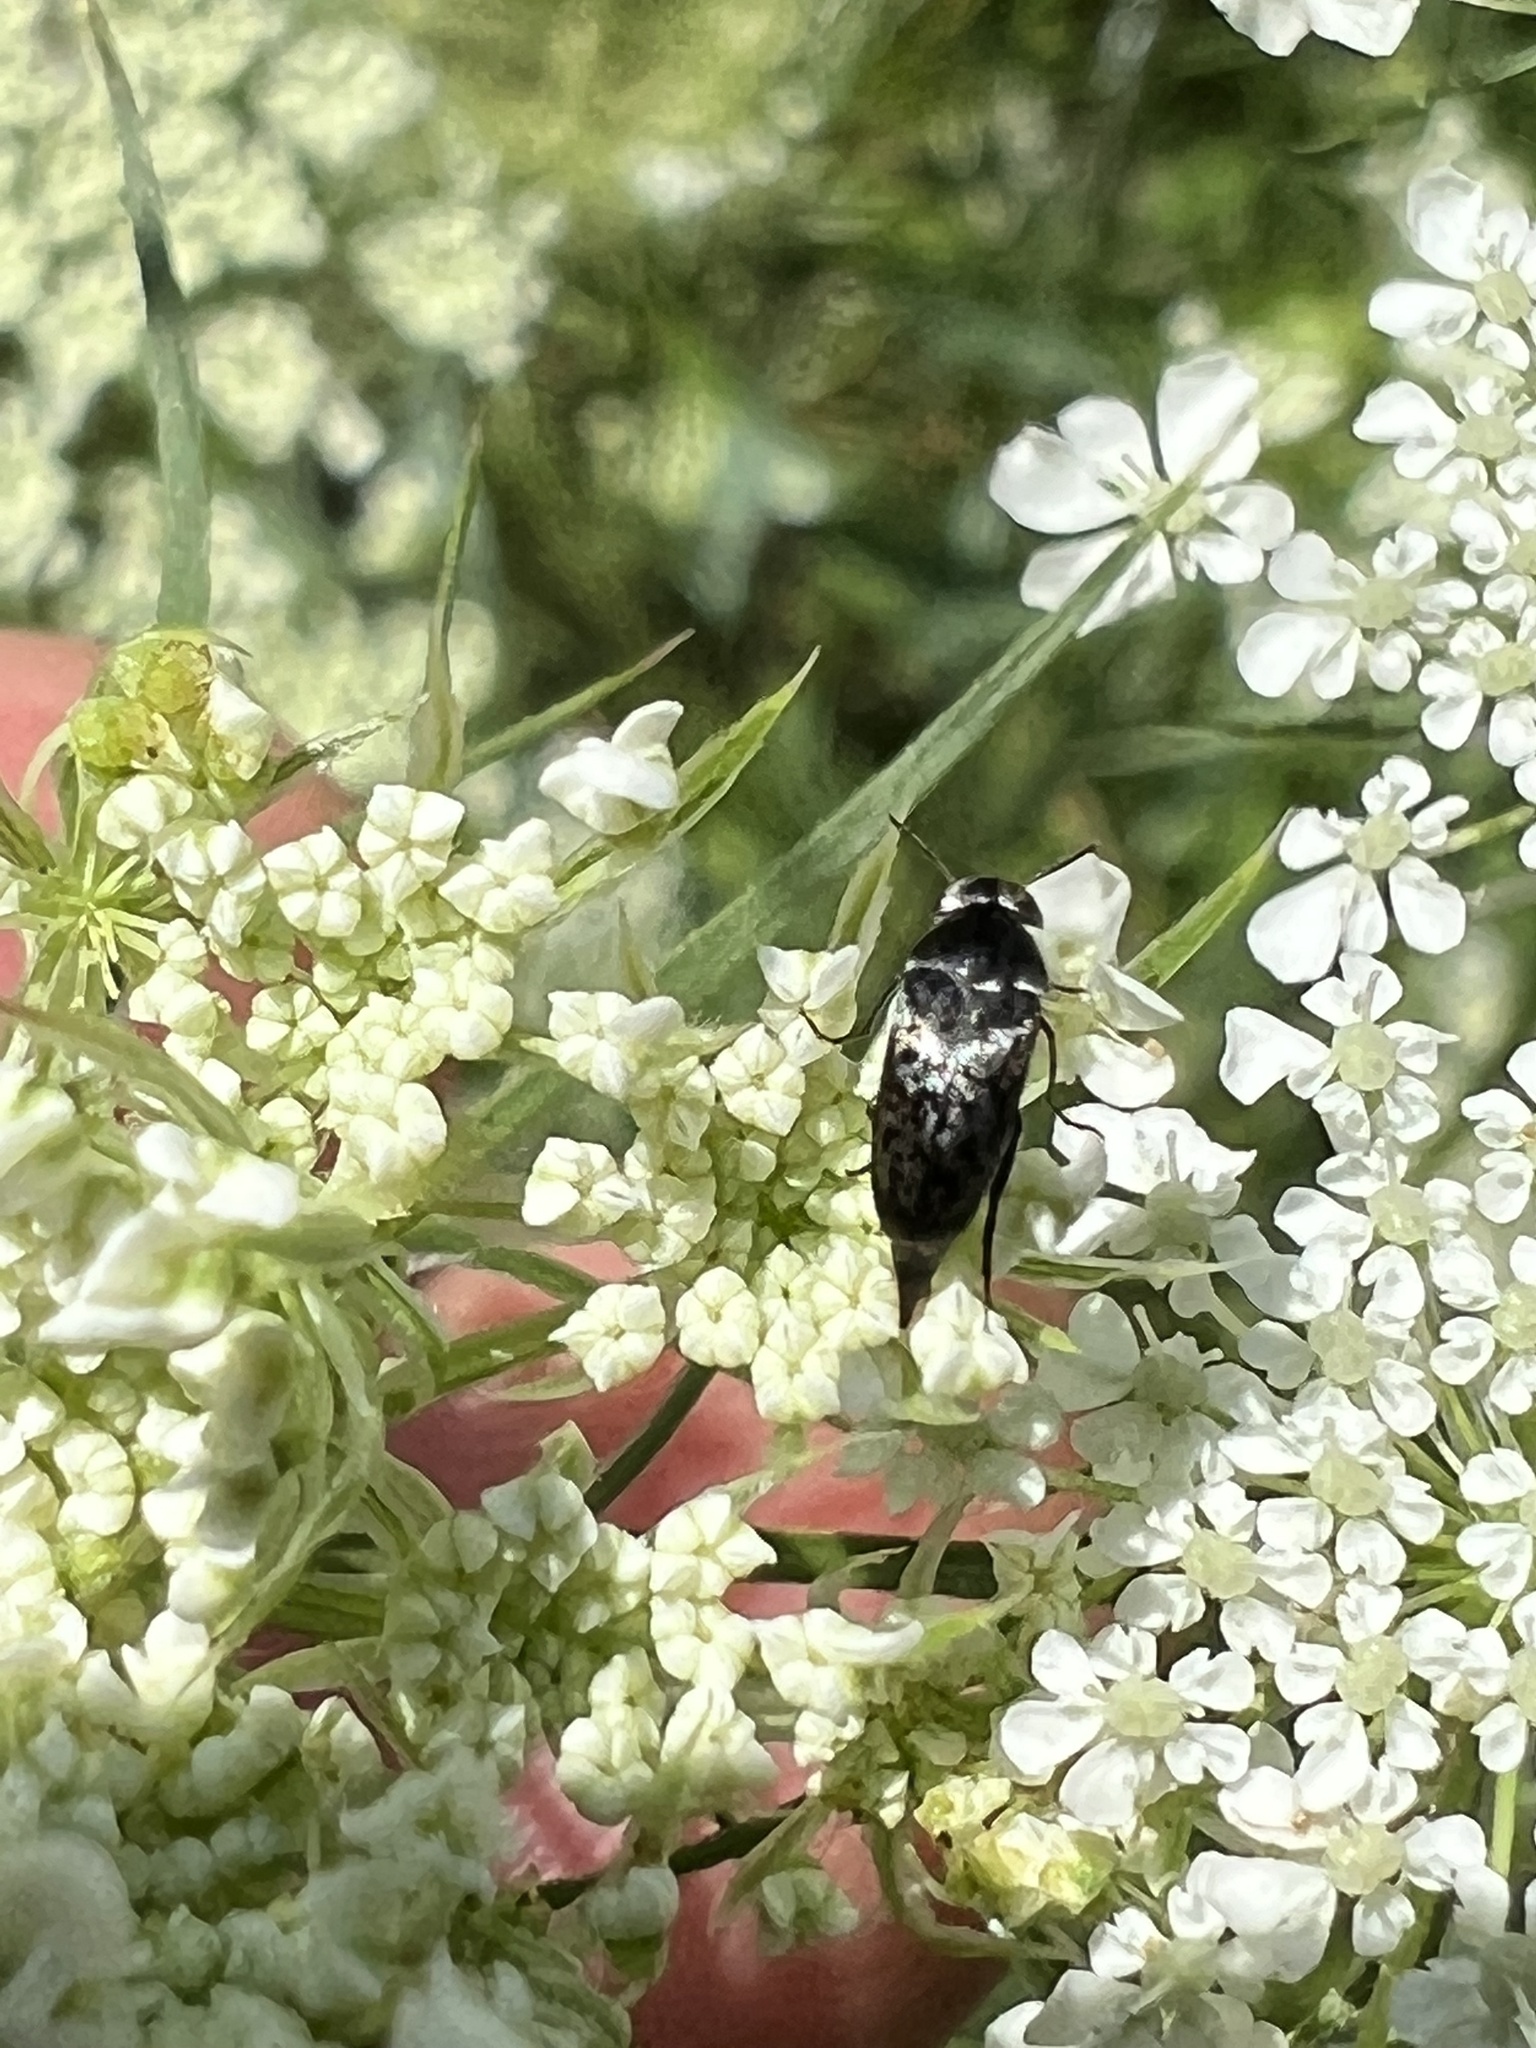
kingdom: Animalia
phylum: Arthropoda
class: Insecta
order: Coleoptera
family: Mordellidae
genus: Mordella
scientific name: Mordella marginata
